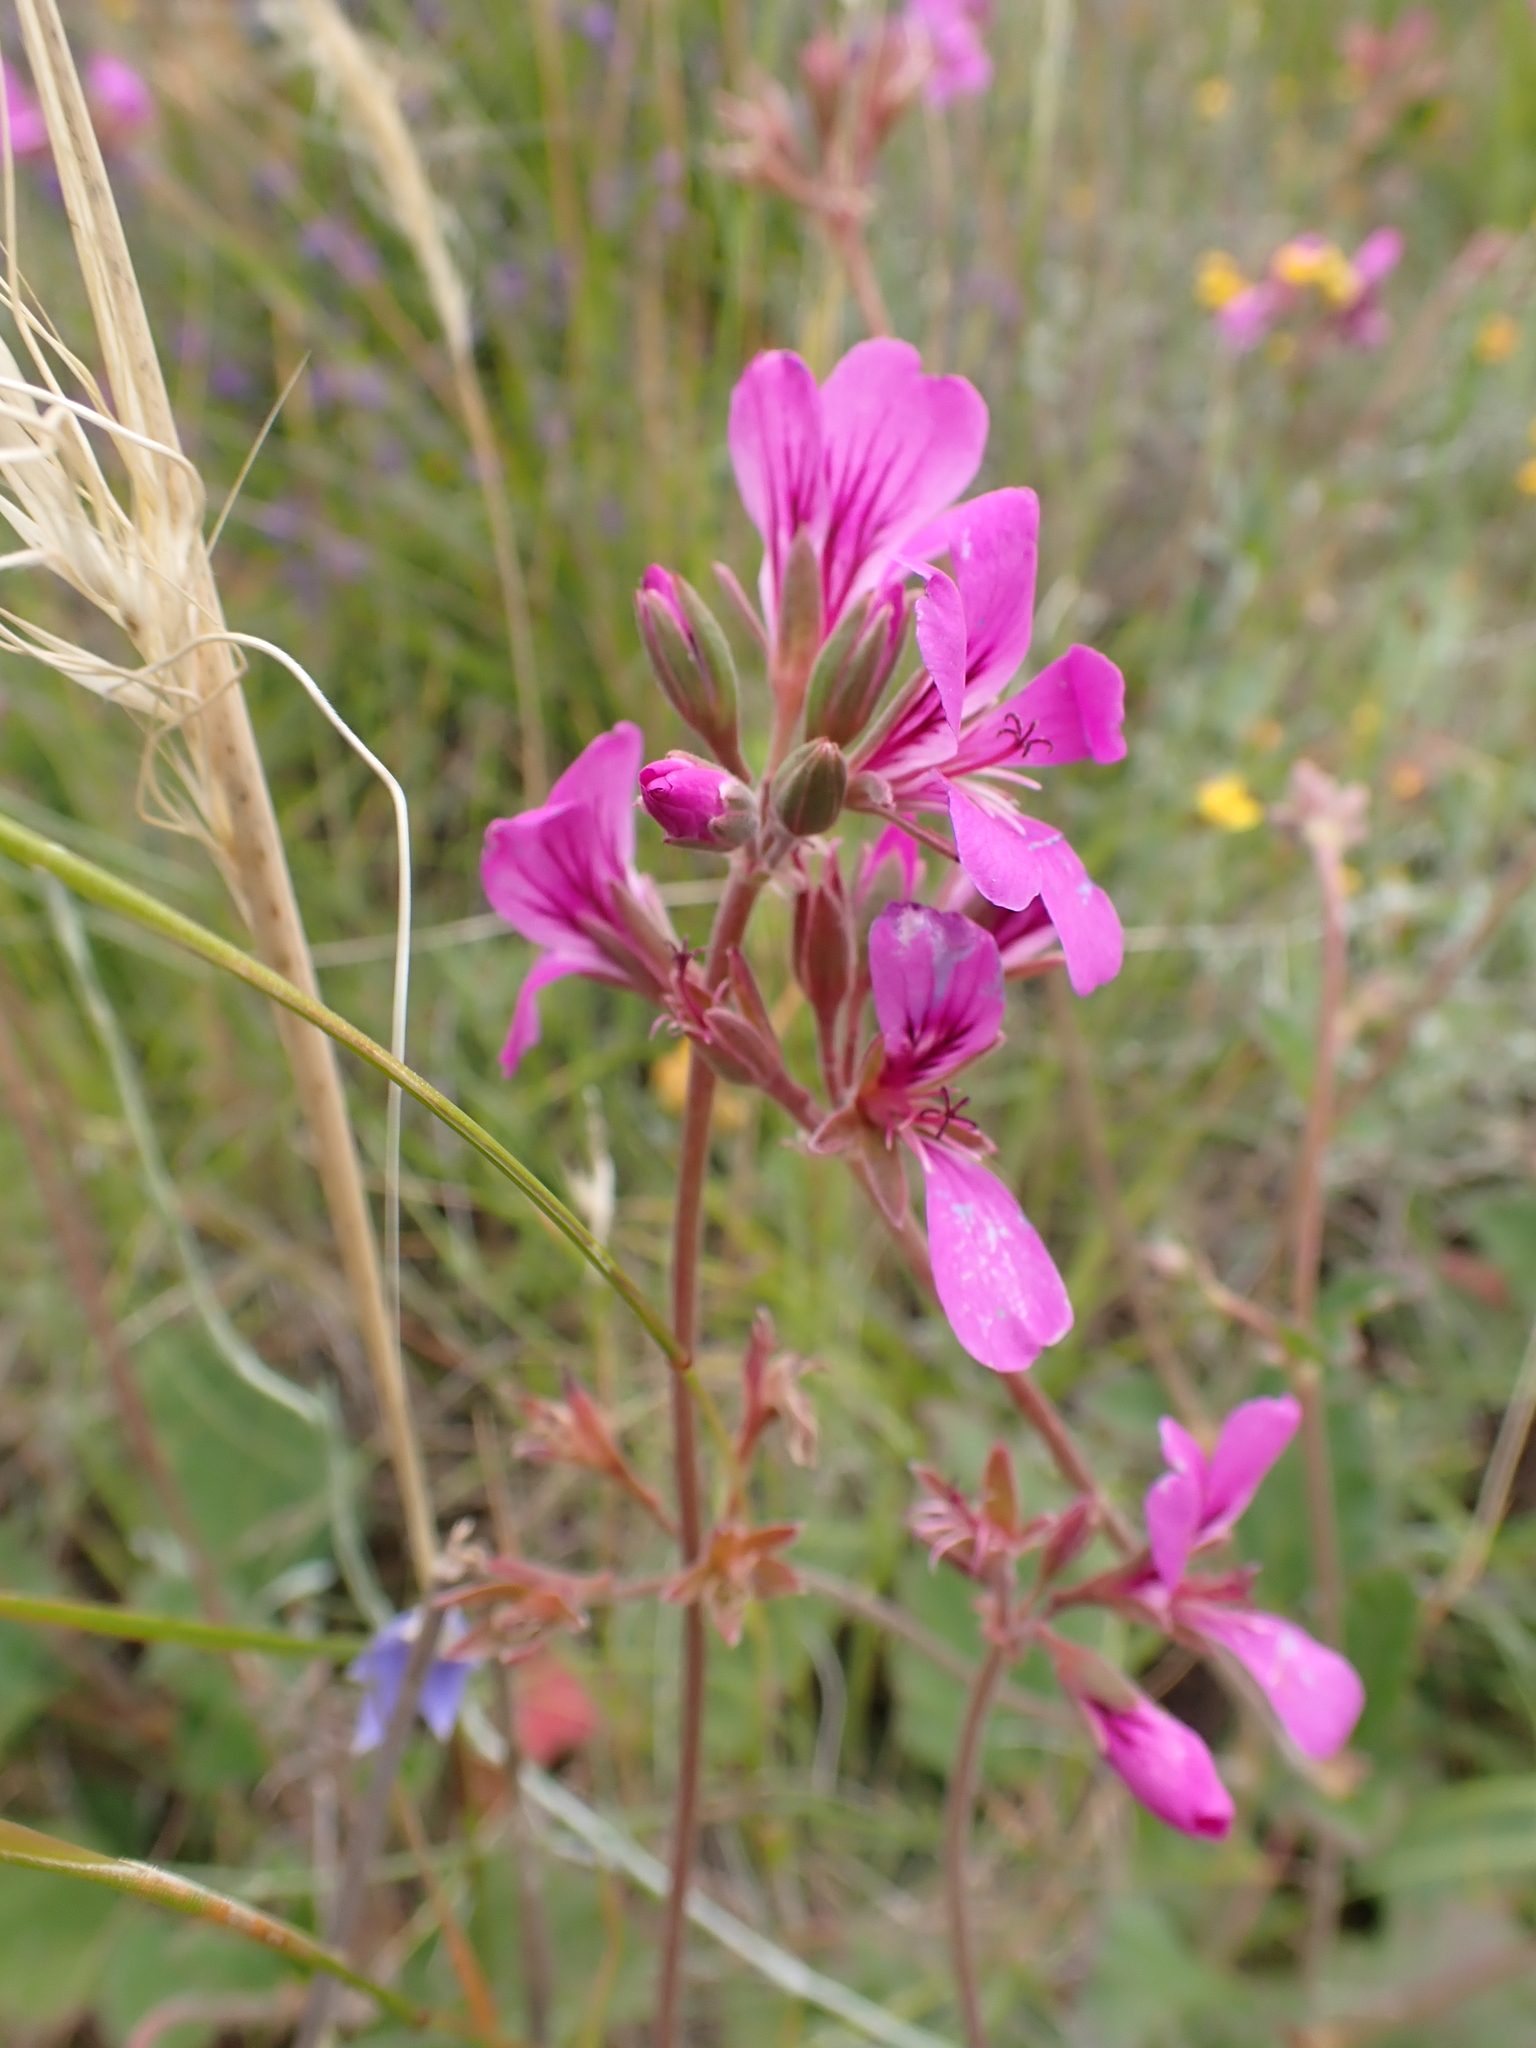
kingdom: Plantae
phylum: Tracheophyta
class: Magnoliopsida
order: Geraniales
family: Geraniaceae
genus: Pelargonium
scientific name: Pelargonium rodneyanum
